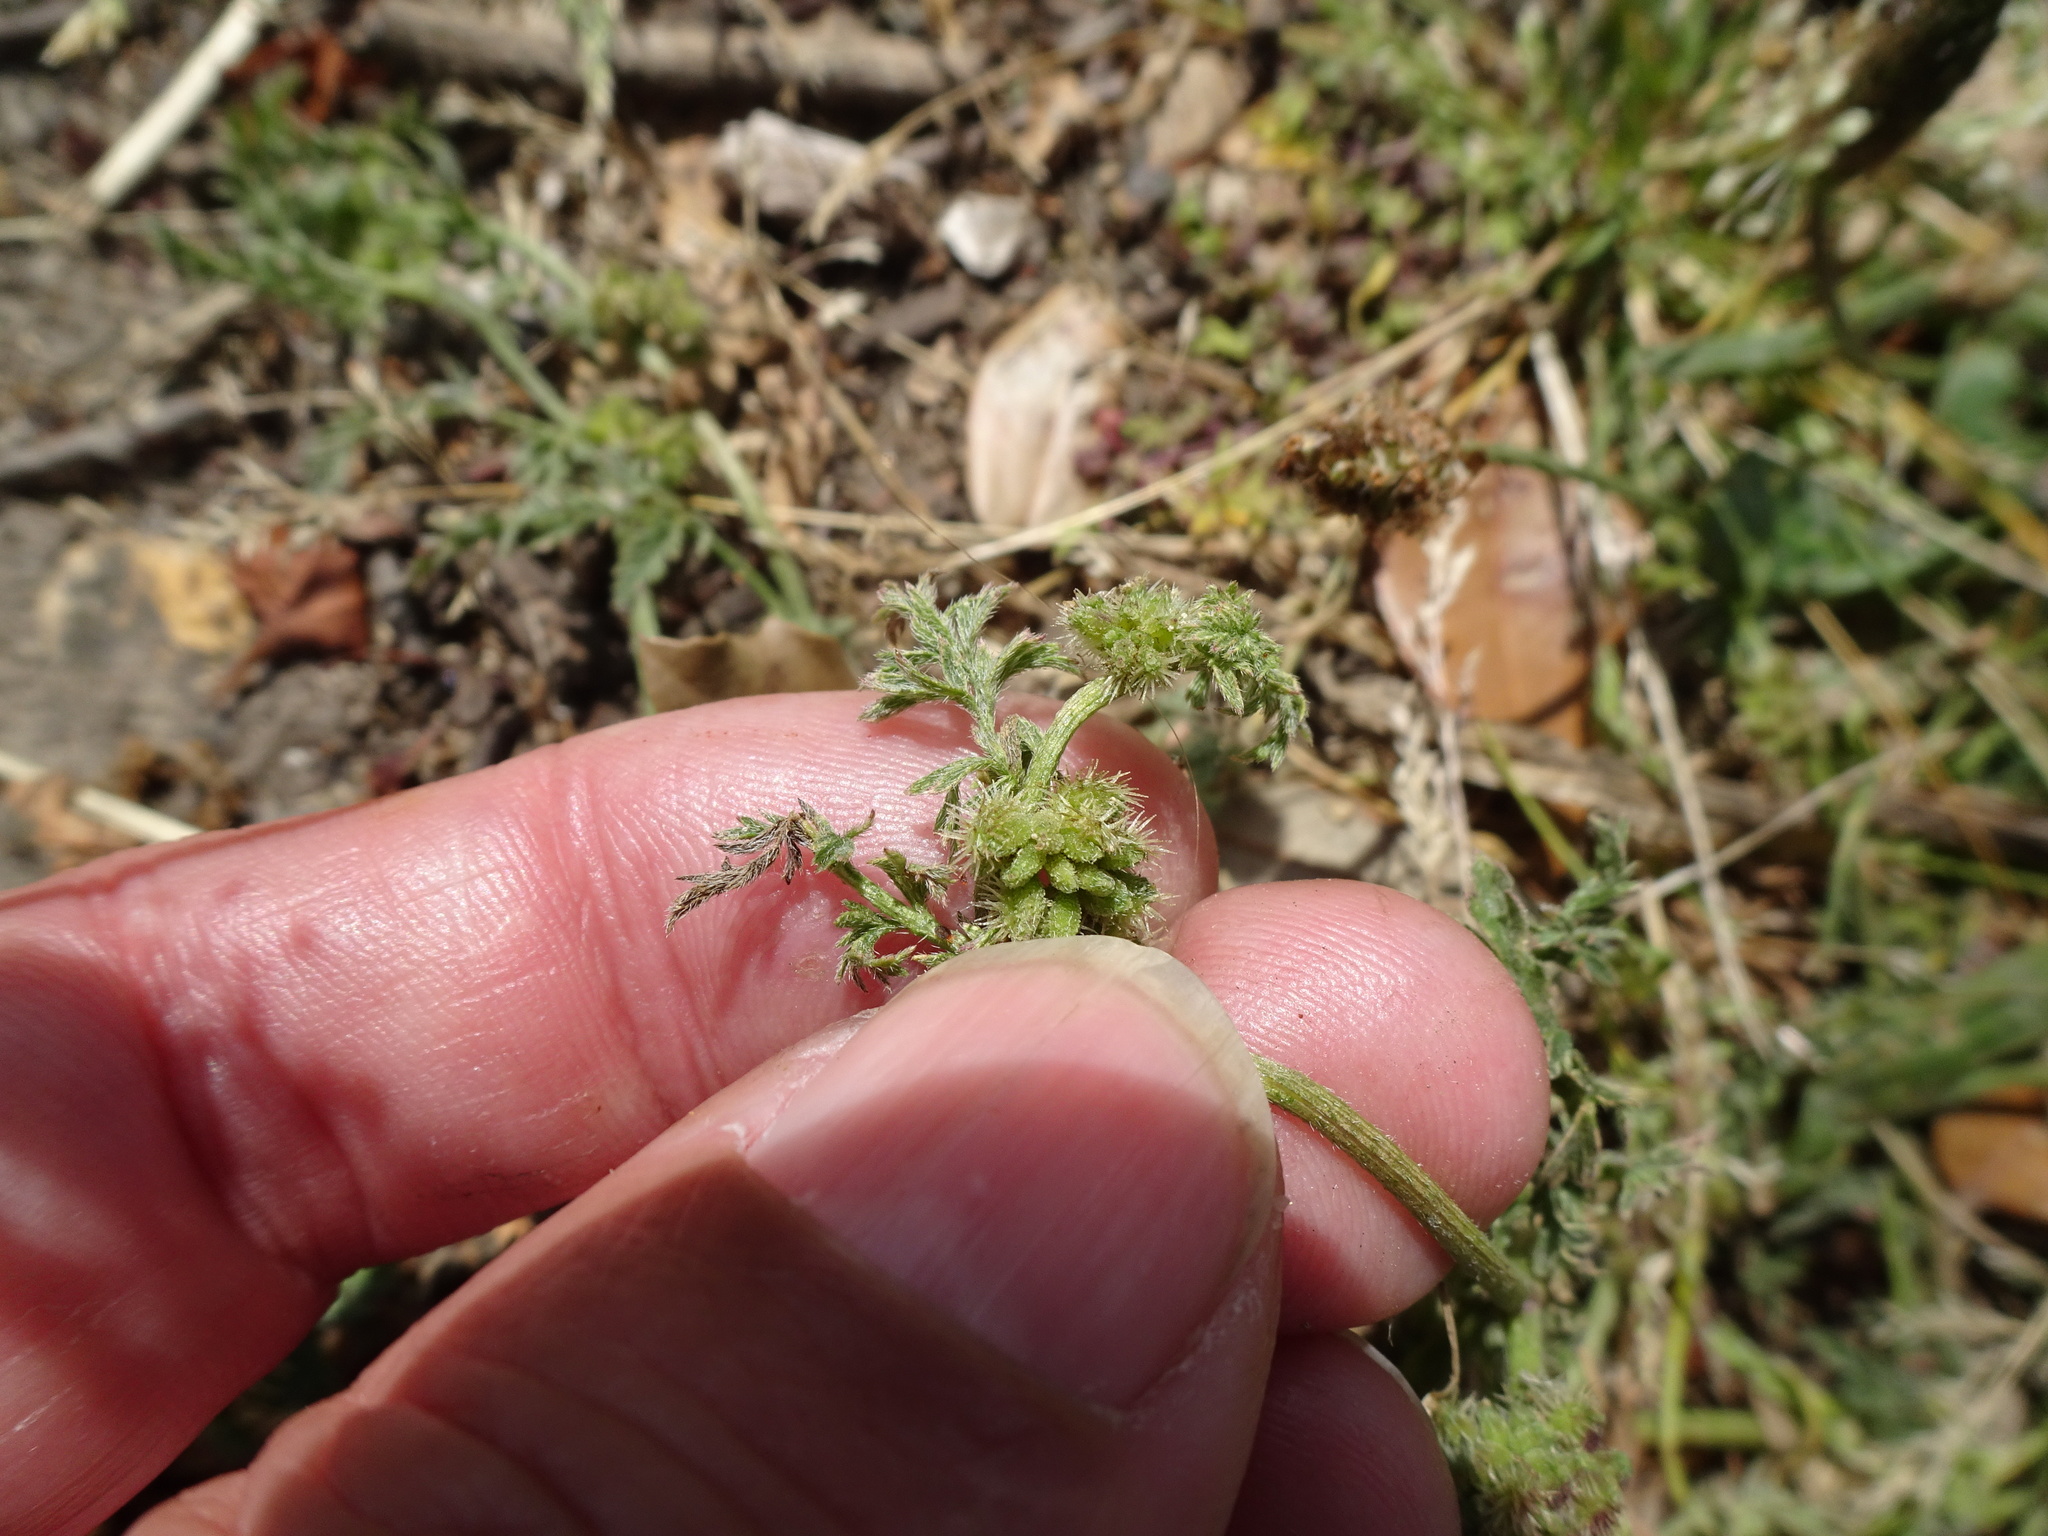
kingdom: Plantae
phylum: Tracheophyta
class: Magnoliopsida
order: Apiales
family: Apiaceae
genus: Torilis
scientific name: Torilis nodosa
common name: Knotted hedge-parsley
